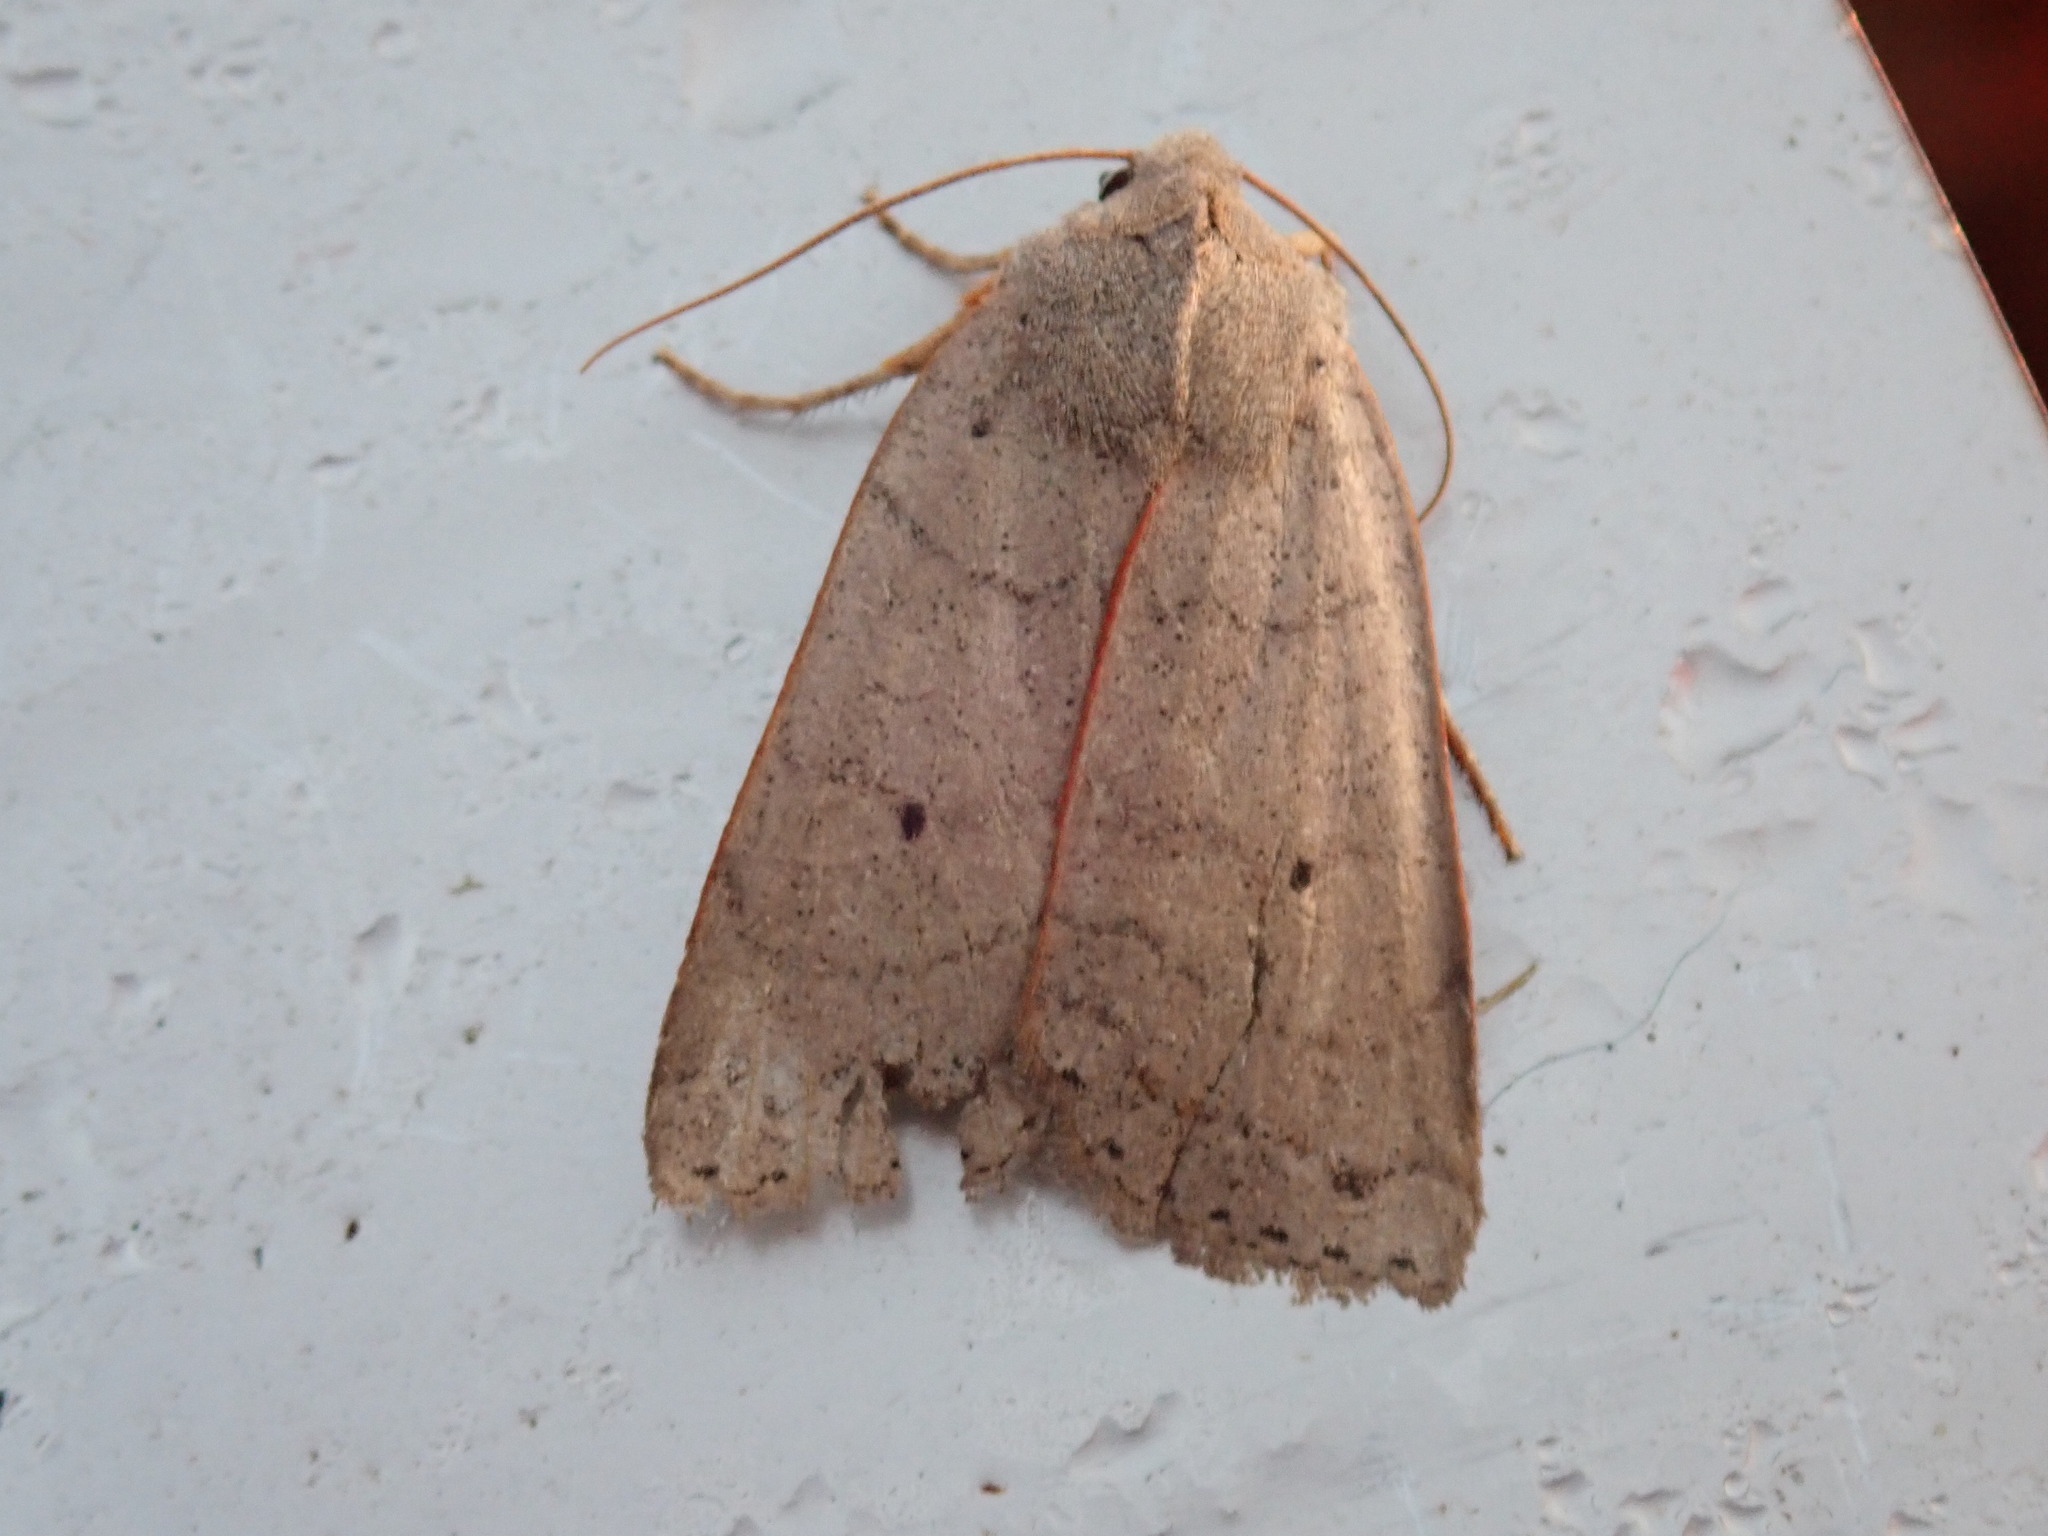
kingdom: Animalia
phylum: Arthropoda
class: Insecta
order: Lepidoptera
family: Noctuidae
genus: Chaetaglaea
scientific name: Chaetaglaea rhonda
